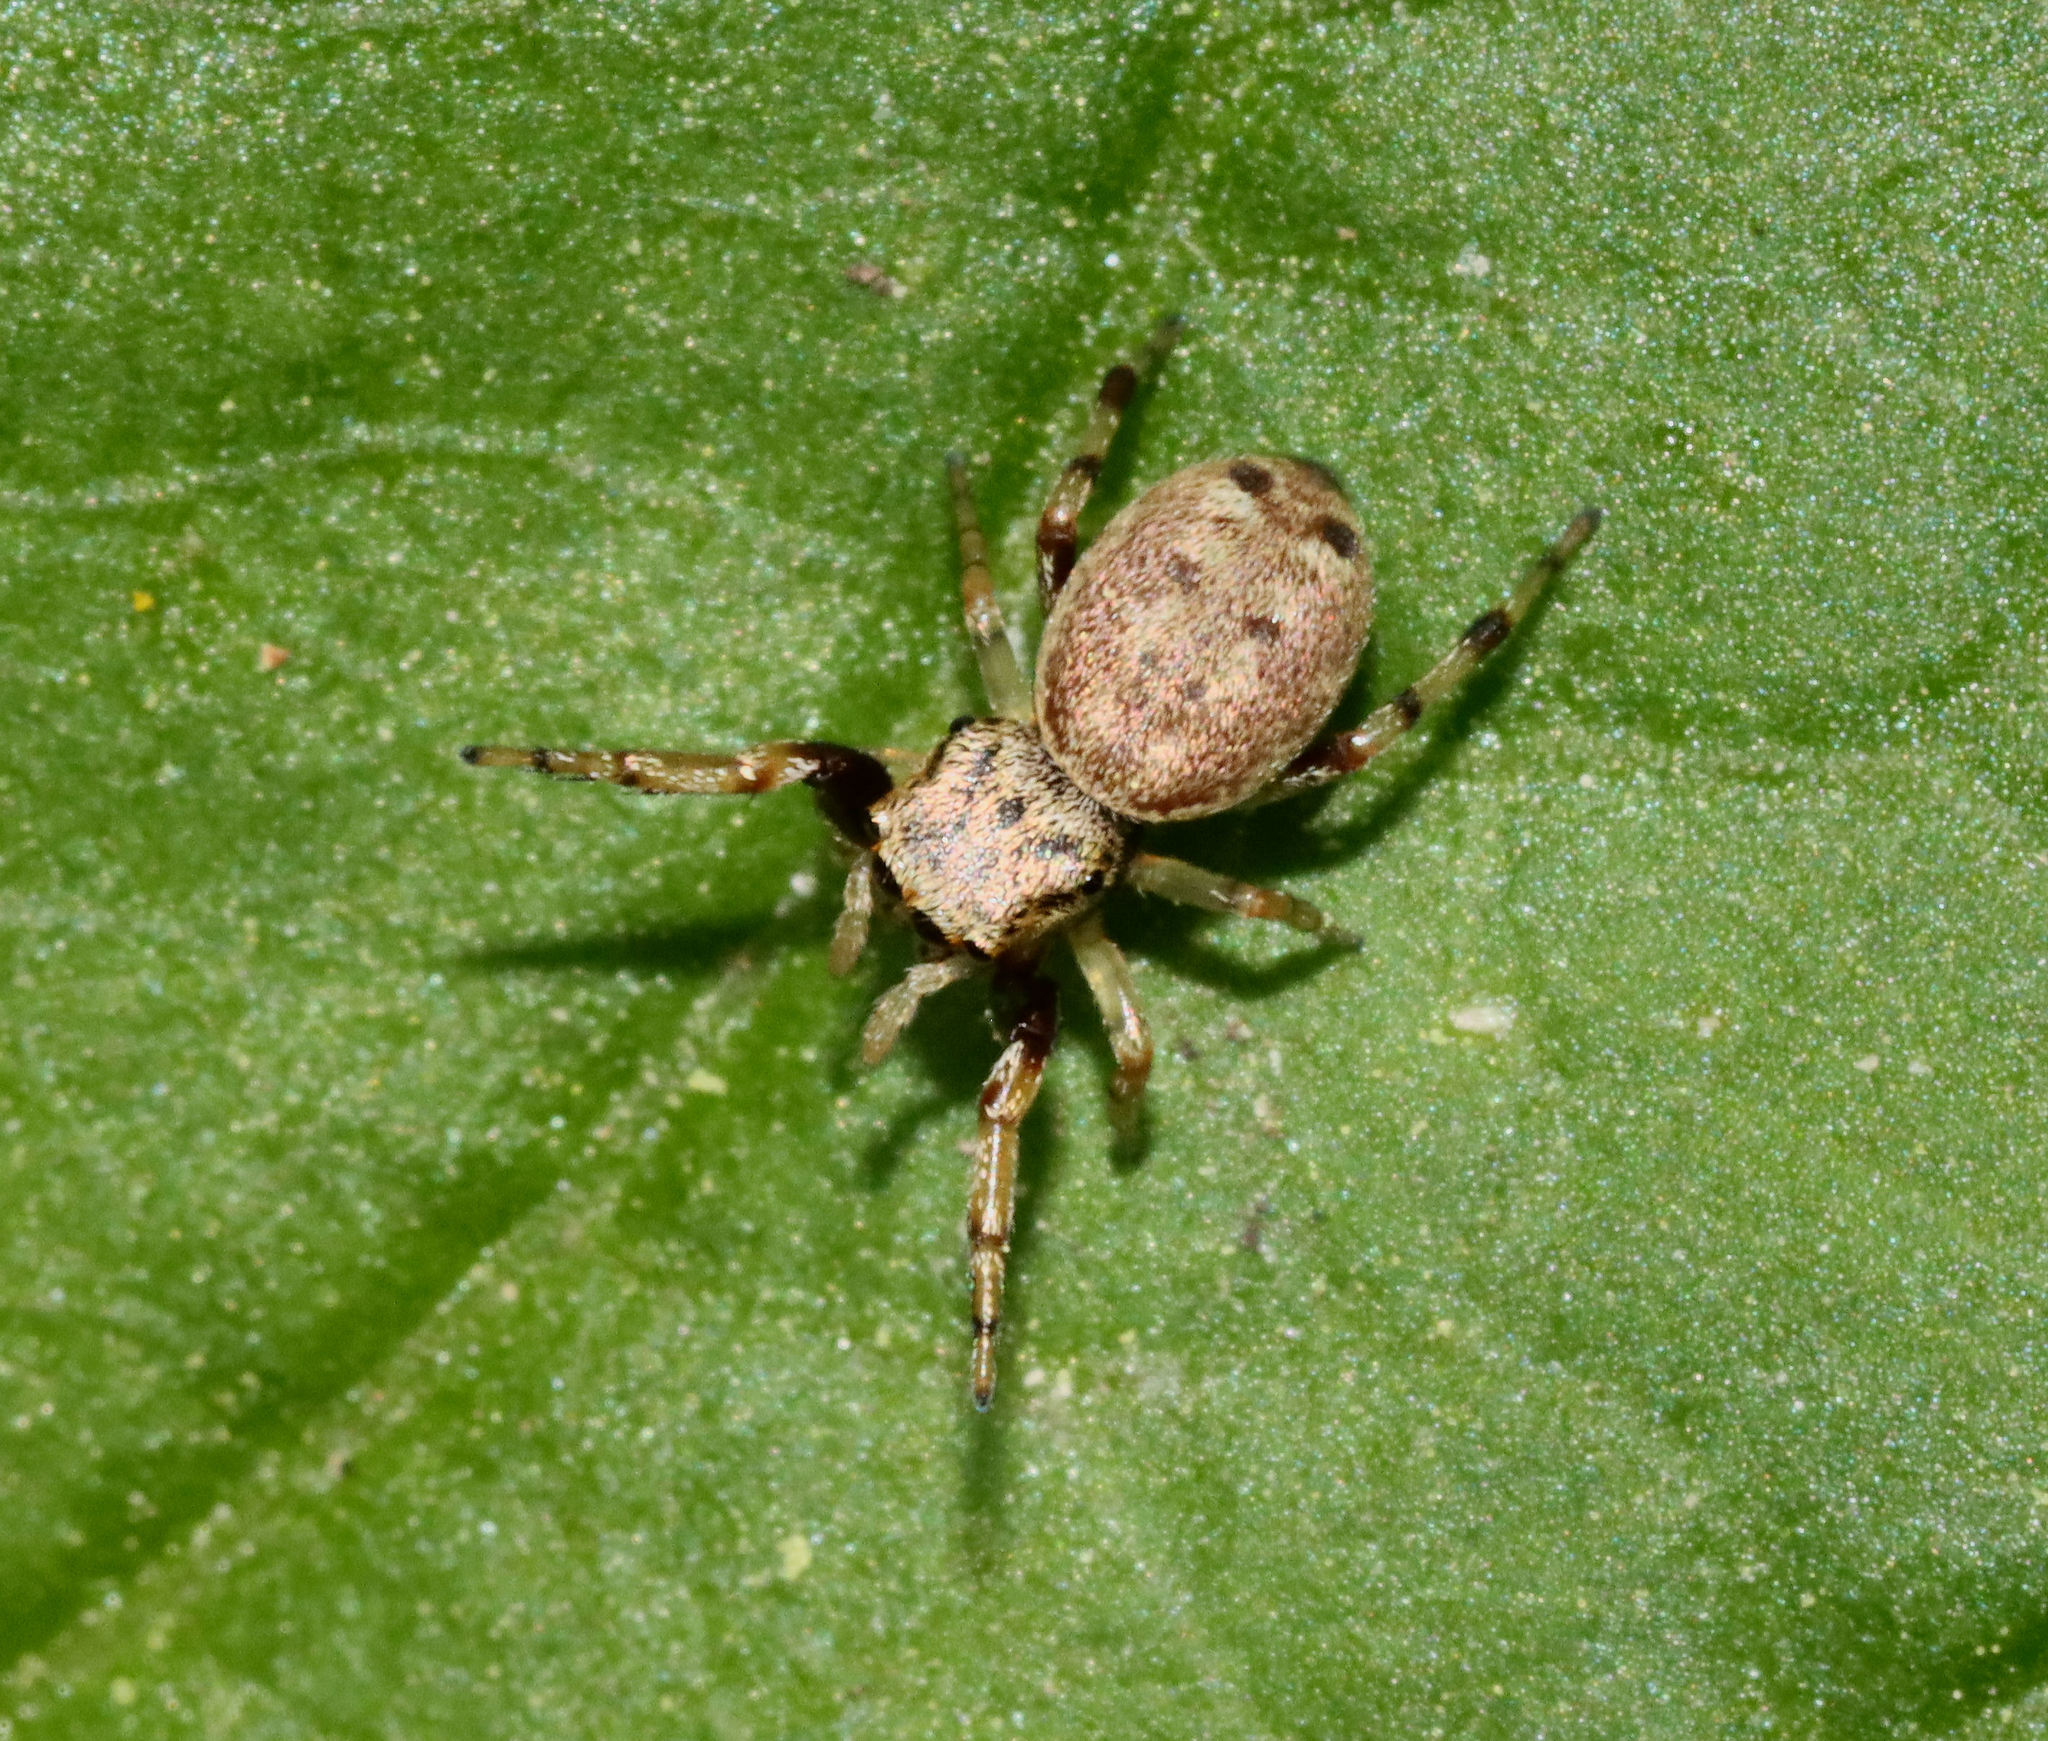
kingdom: Animalia
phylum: Arthropoda
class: Arachnida
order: Araneae
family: Salticidae
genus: Zygoballus
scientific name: Zygoballus rufipes
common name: Jumping spiders
